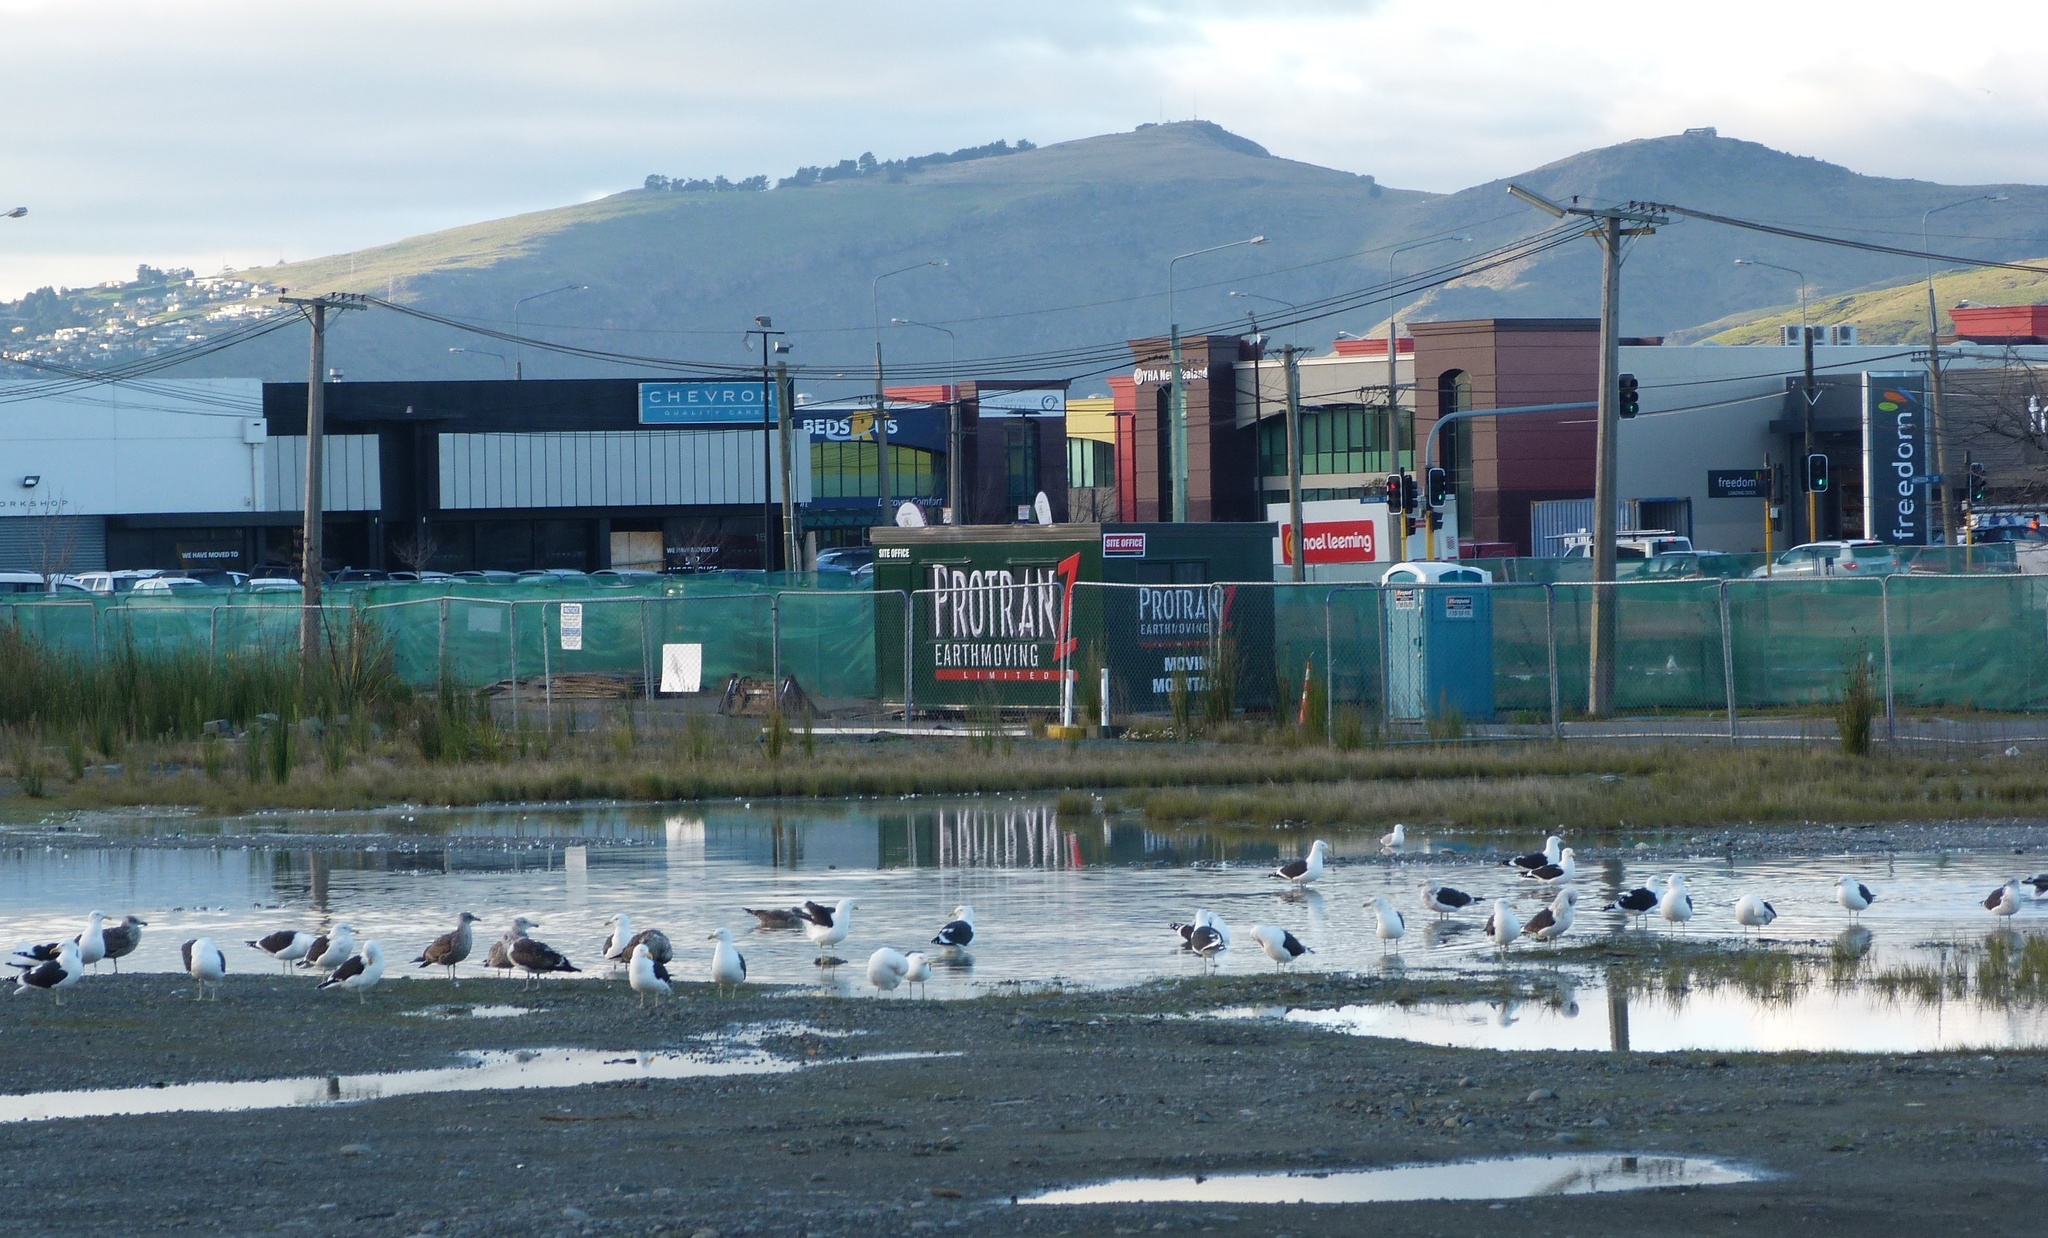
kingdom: Animalia
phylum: Chordata
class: Aves
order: Charadriiformes
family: Laridae
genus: Larus
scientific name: Larus dominicanus
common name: Kelp gull
